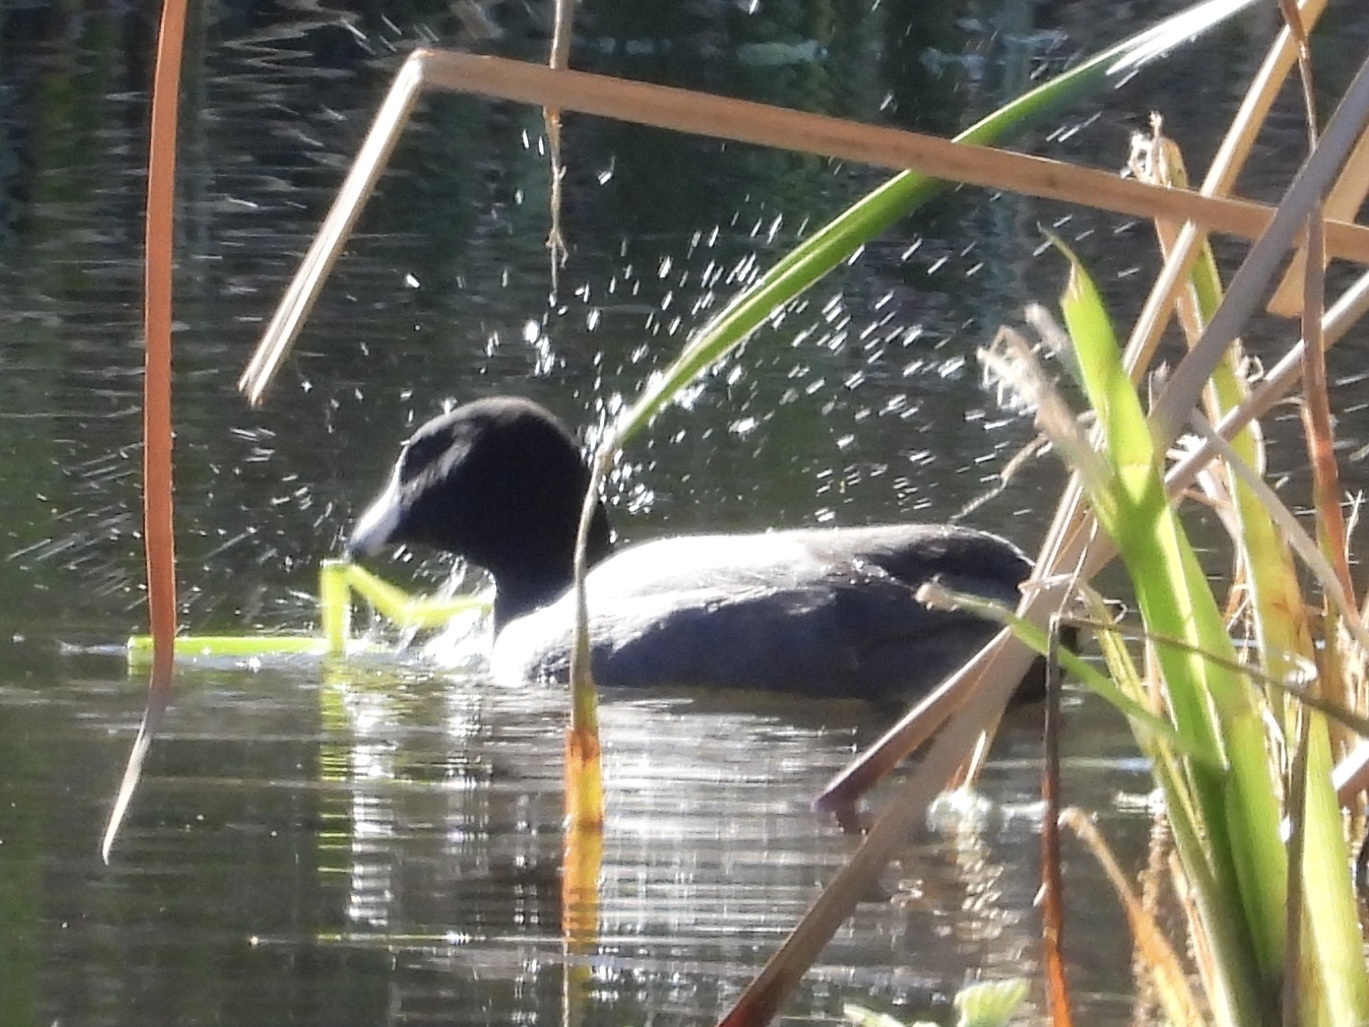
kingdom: Animalia
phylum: Chordata
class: Aves
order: Gruiformes
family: Rallidae
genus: Fulica
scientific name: Fulica americana
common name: American coot
